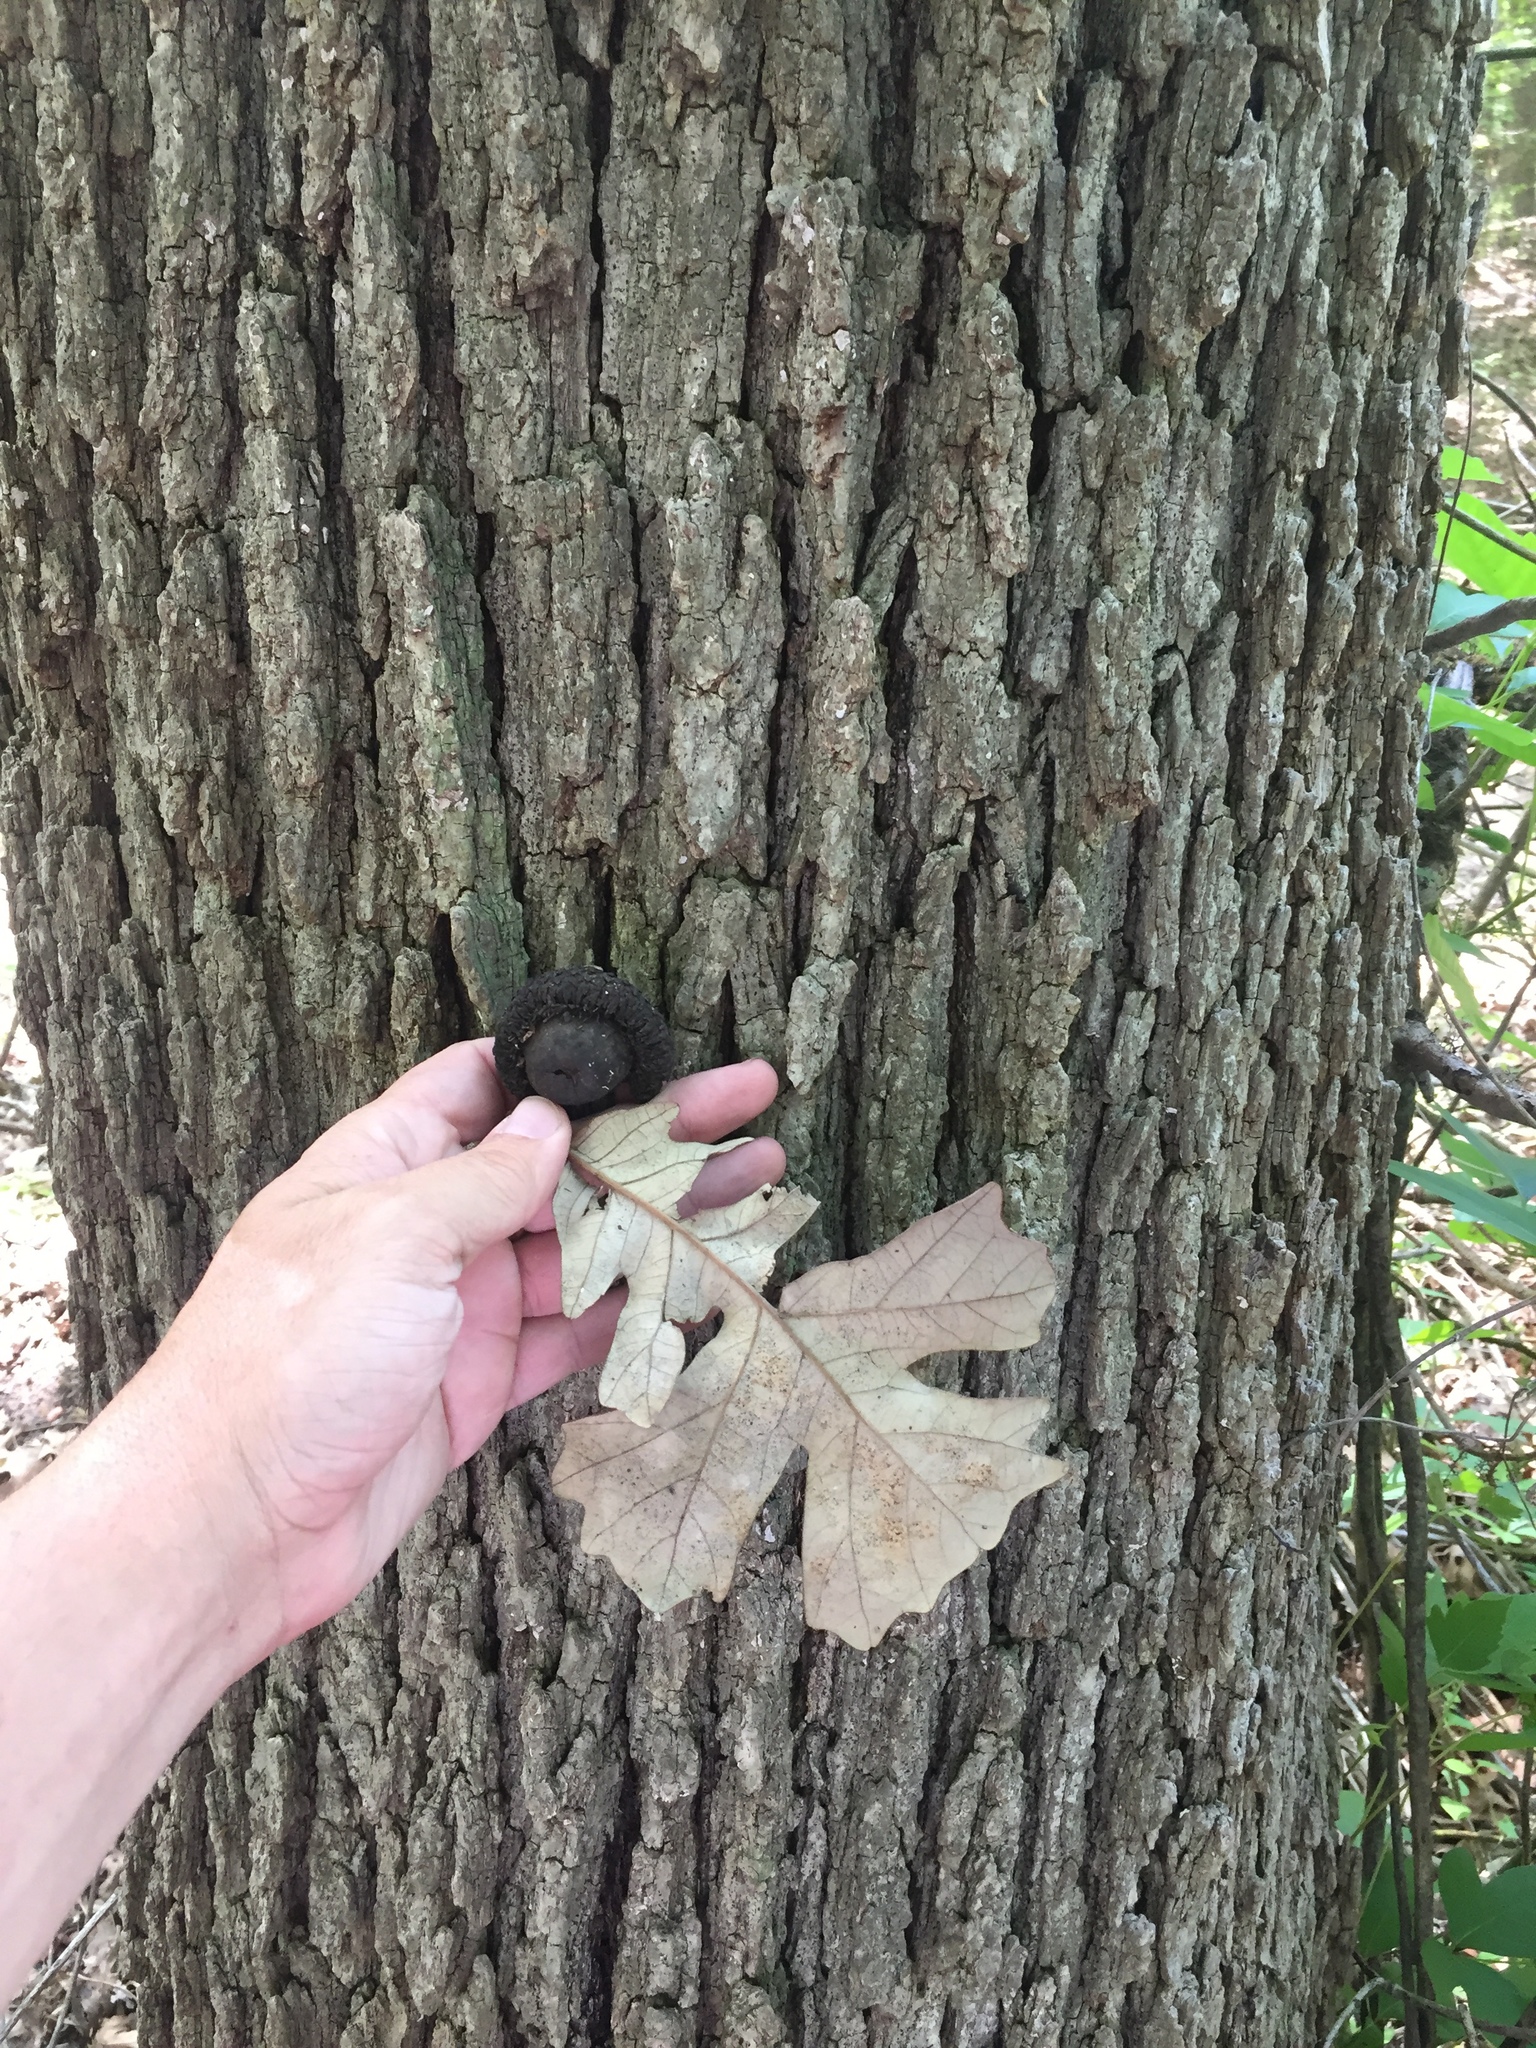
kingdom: Plantae
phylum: Tracheophyta
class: Magnoliopsida
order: Fagales
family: Fagaceae
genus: Quercus
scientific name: Quercus macrocarpa
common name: Bur oak
